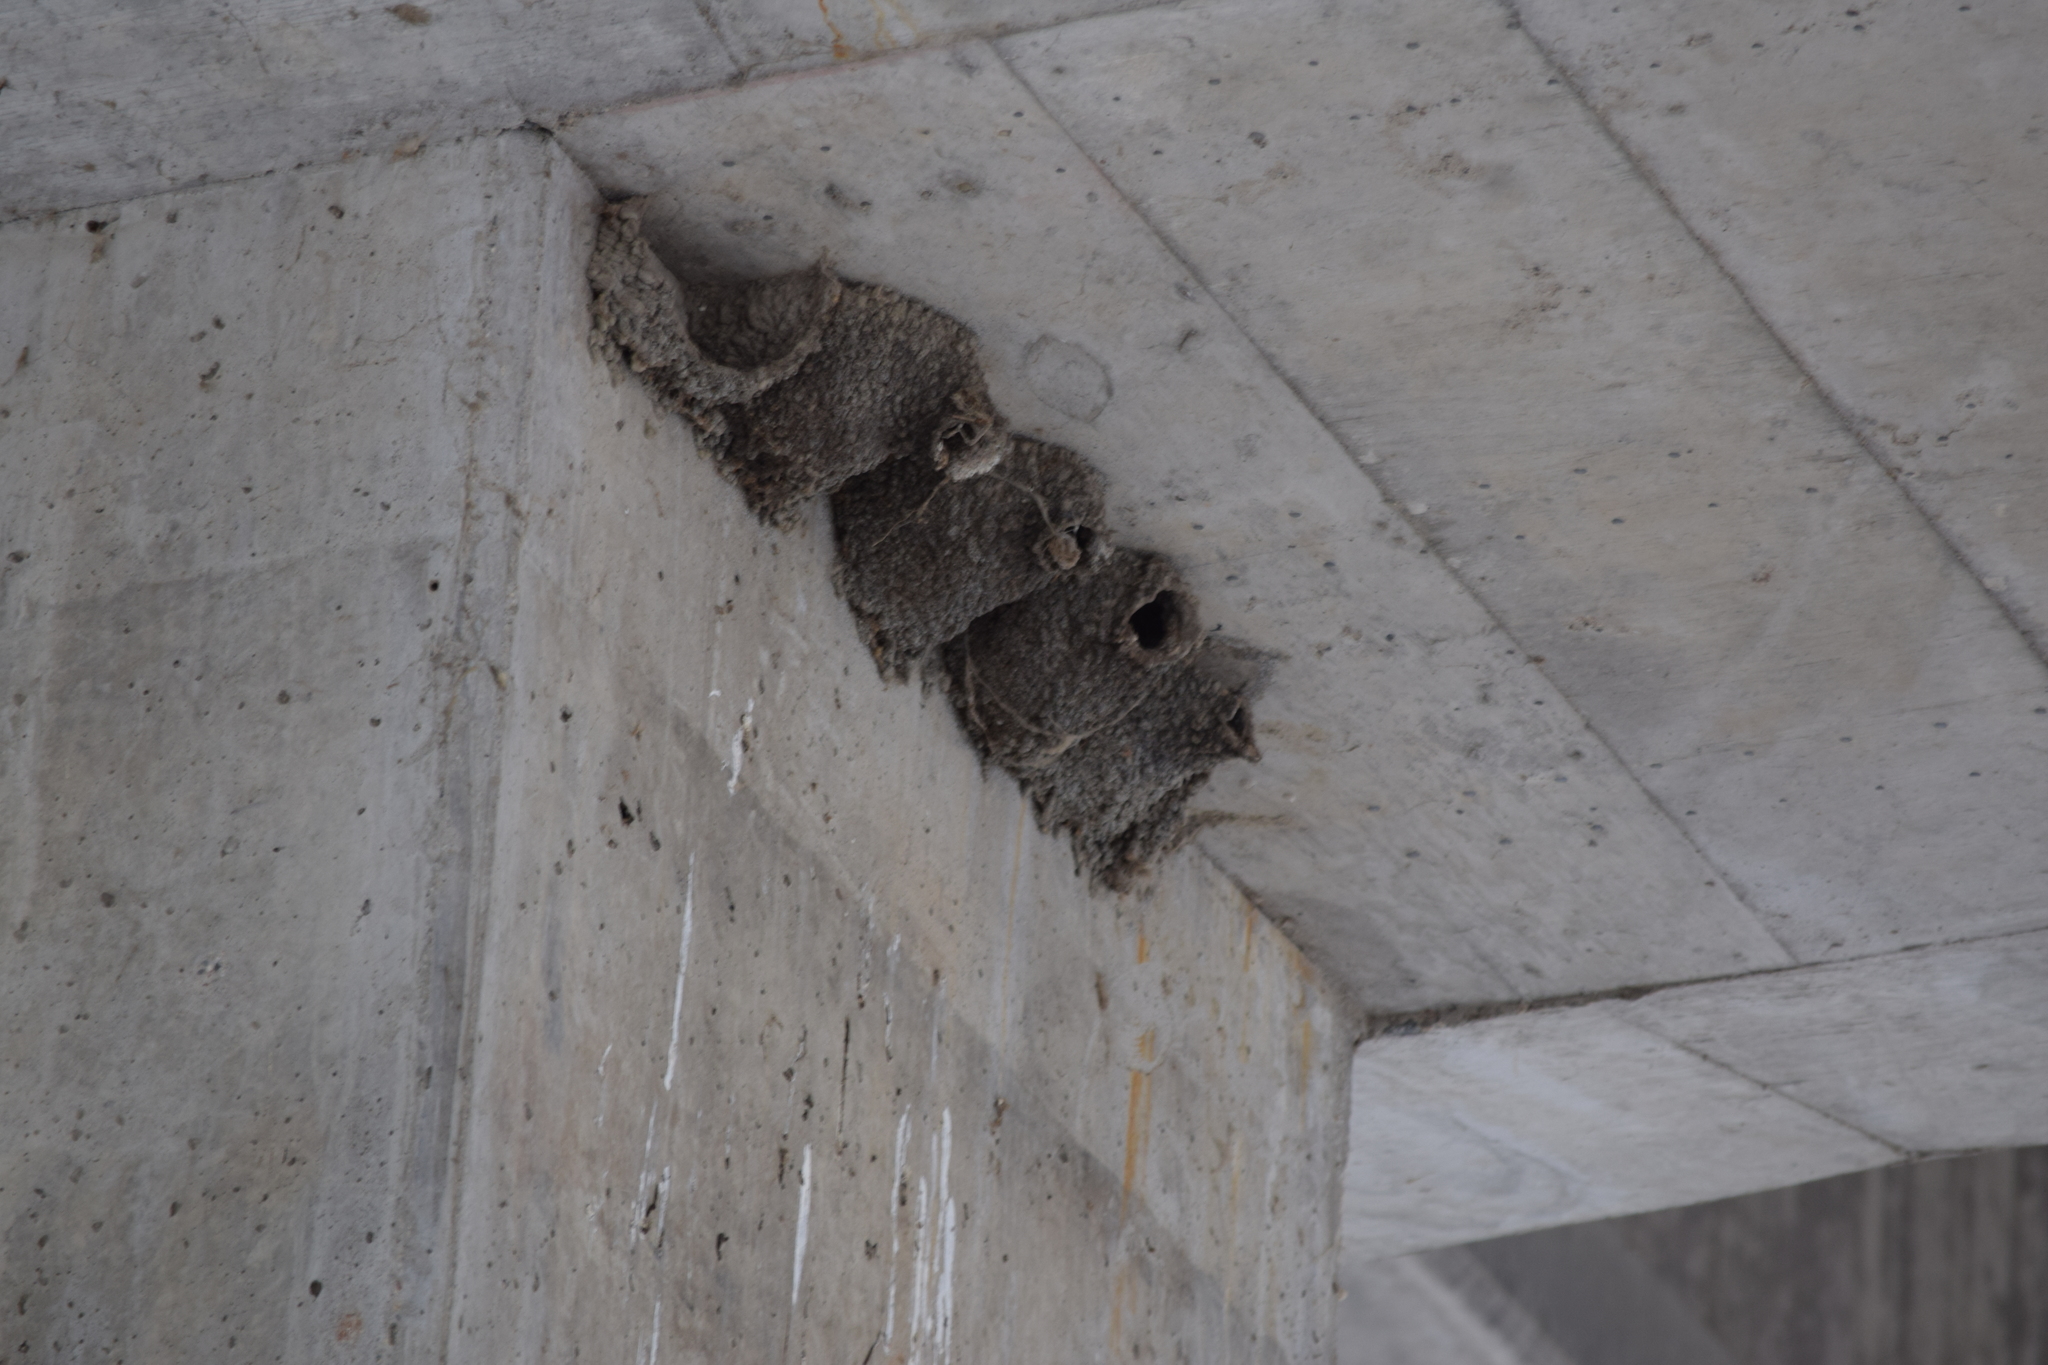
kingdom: Animalia
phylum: Chordata
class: Aves
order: Passeriformes
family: Hirundinidae
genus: Petrochelidon
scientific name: Petrochelidon pyrrhonota
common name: American cliff swallow
